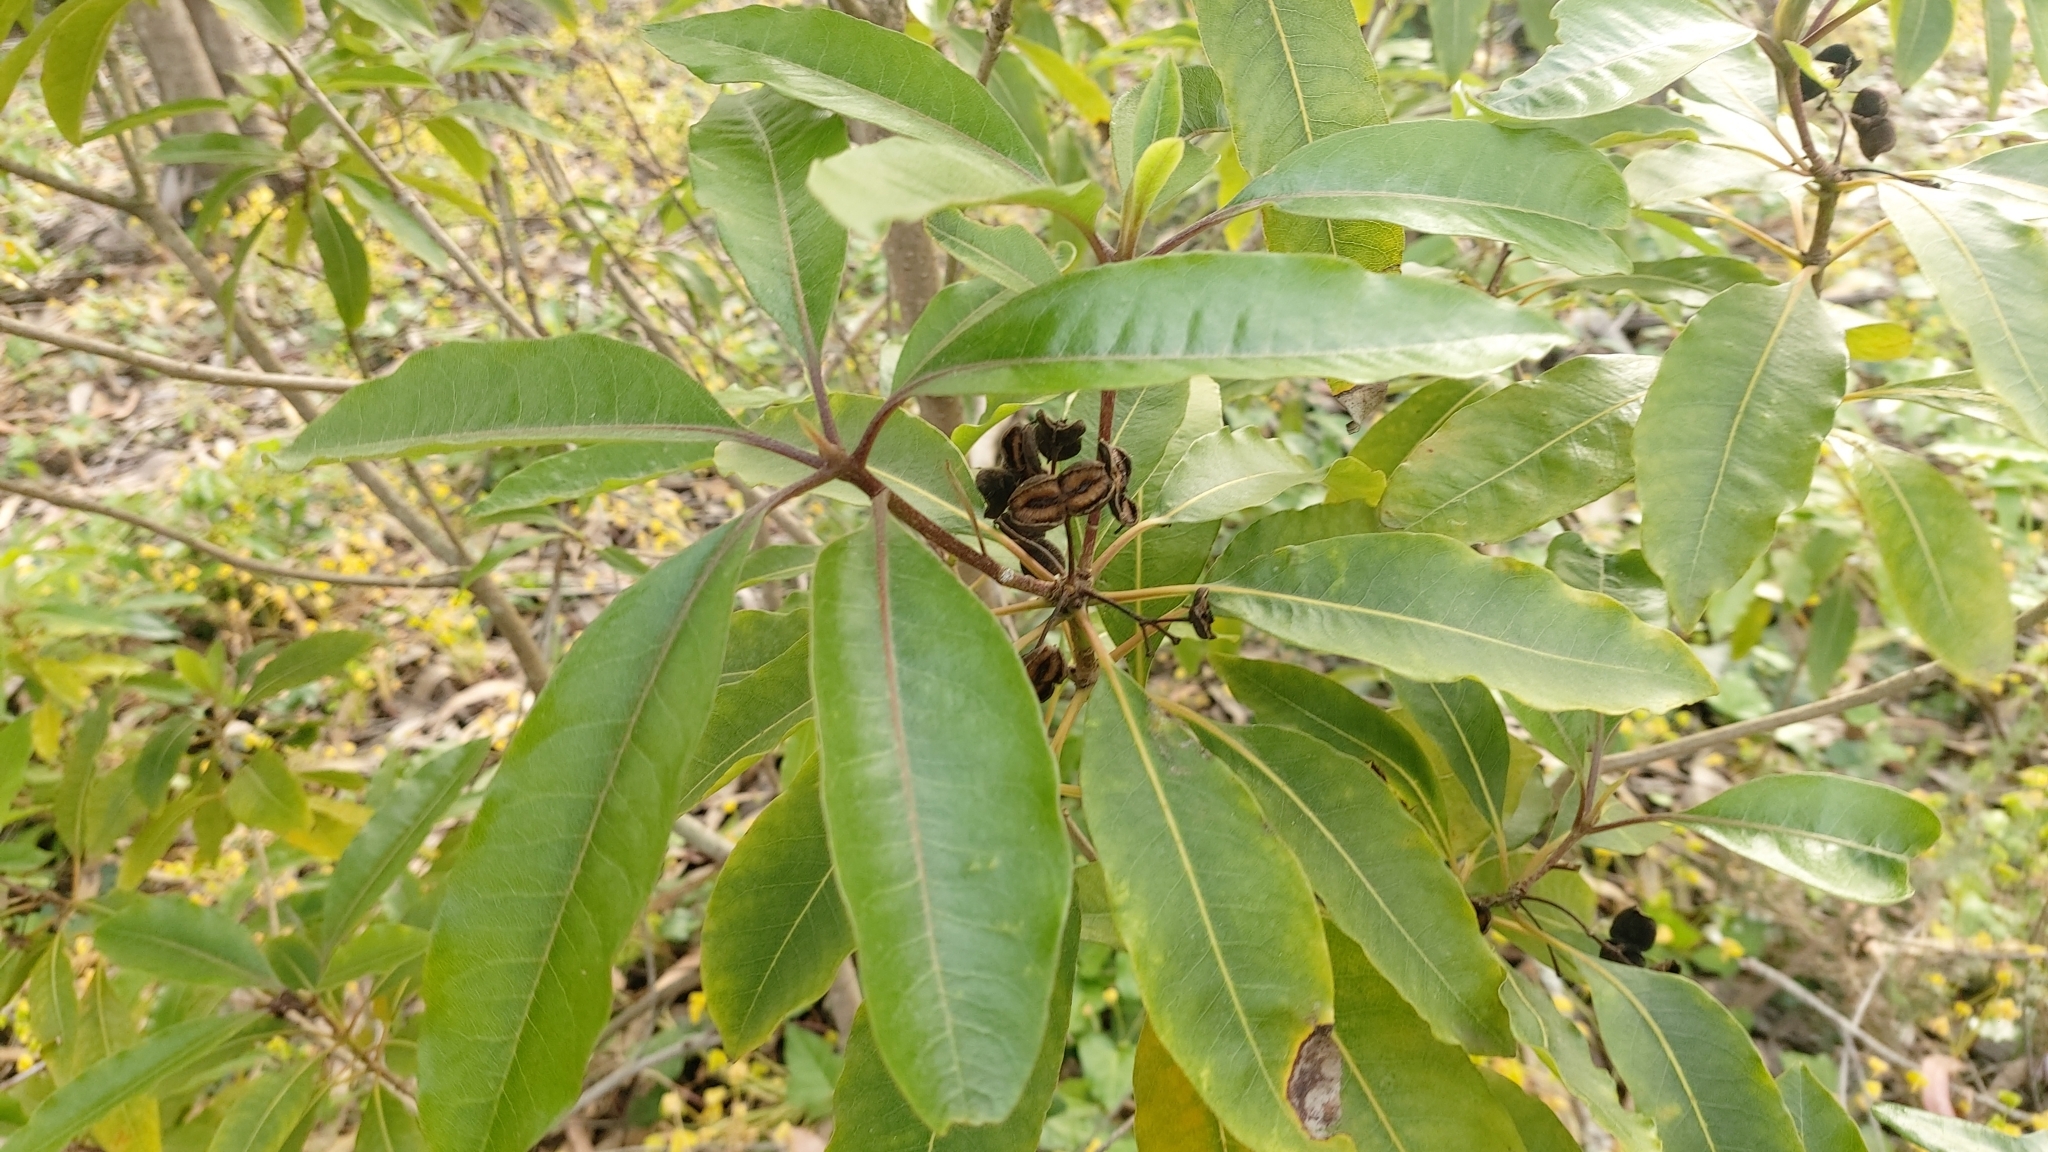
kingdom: Plantae
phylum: Tracheophyta
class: Magnoliopsida
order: Apiales
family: Pittosporaceae
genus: Pittosporum
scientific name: Pittosporum undulatum
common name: Australian cheesewood
